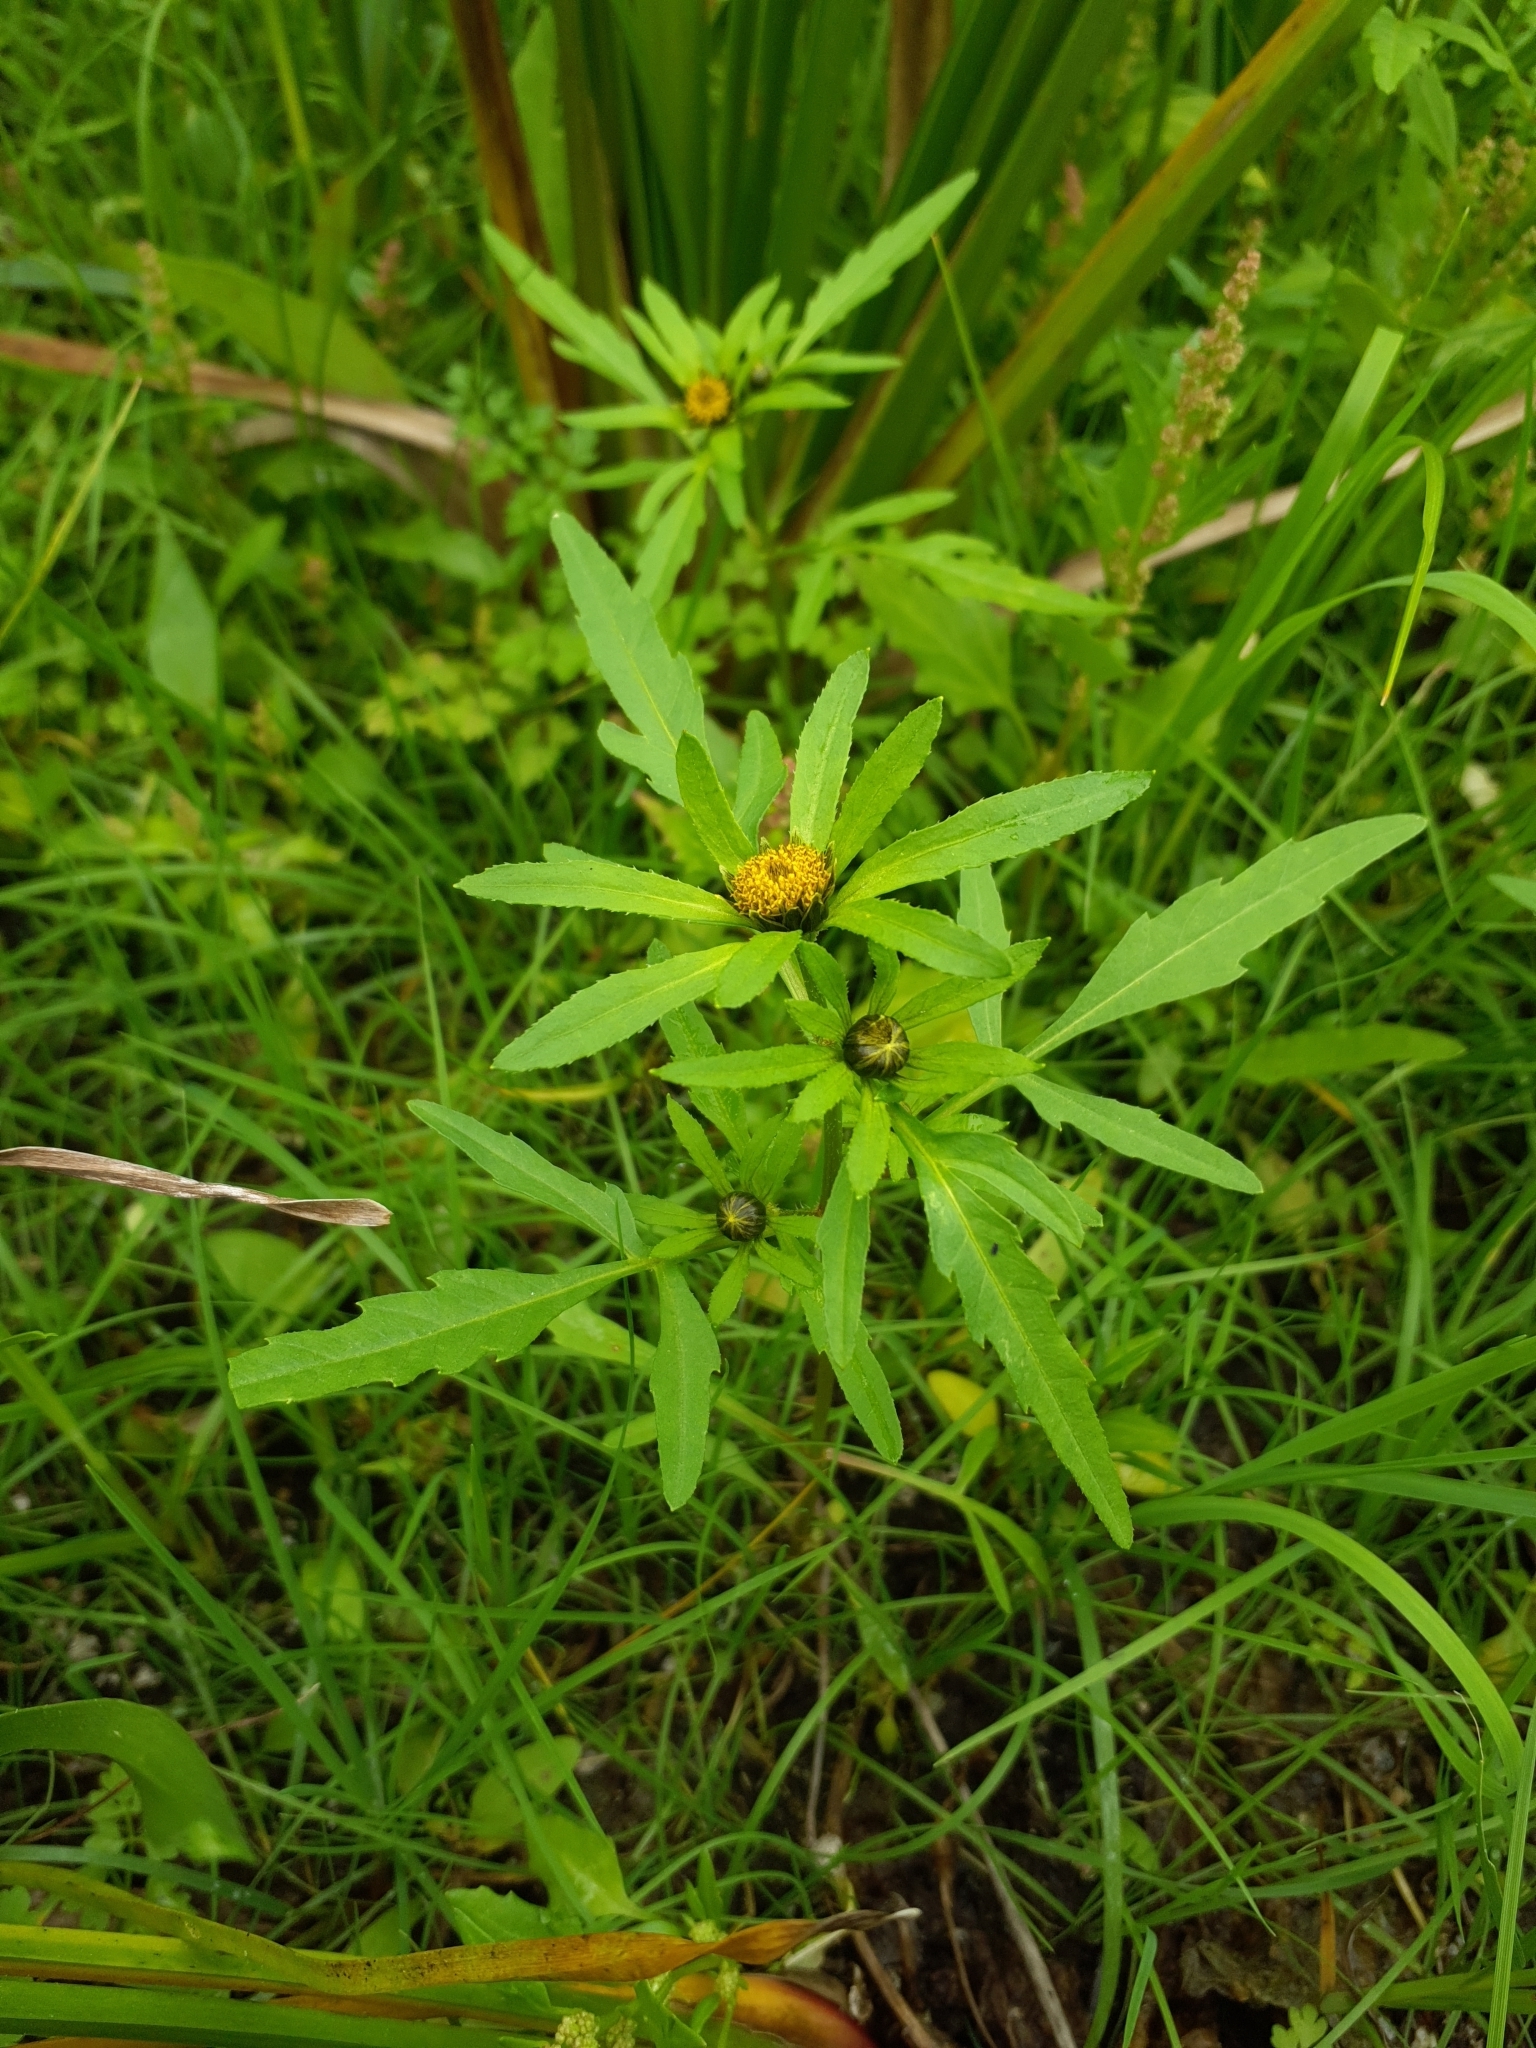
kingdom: Plantae
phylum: Tracheophyta
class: Magnoliopsida
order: Asterales
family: Asteraceae
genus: Bidens
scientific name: Bidens tripartita
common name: Trifid bur-marigold
